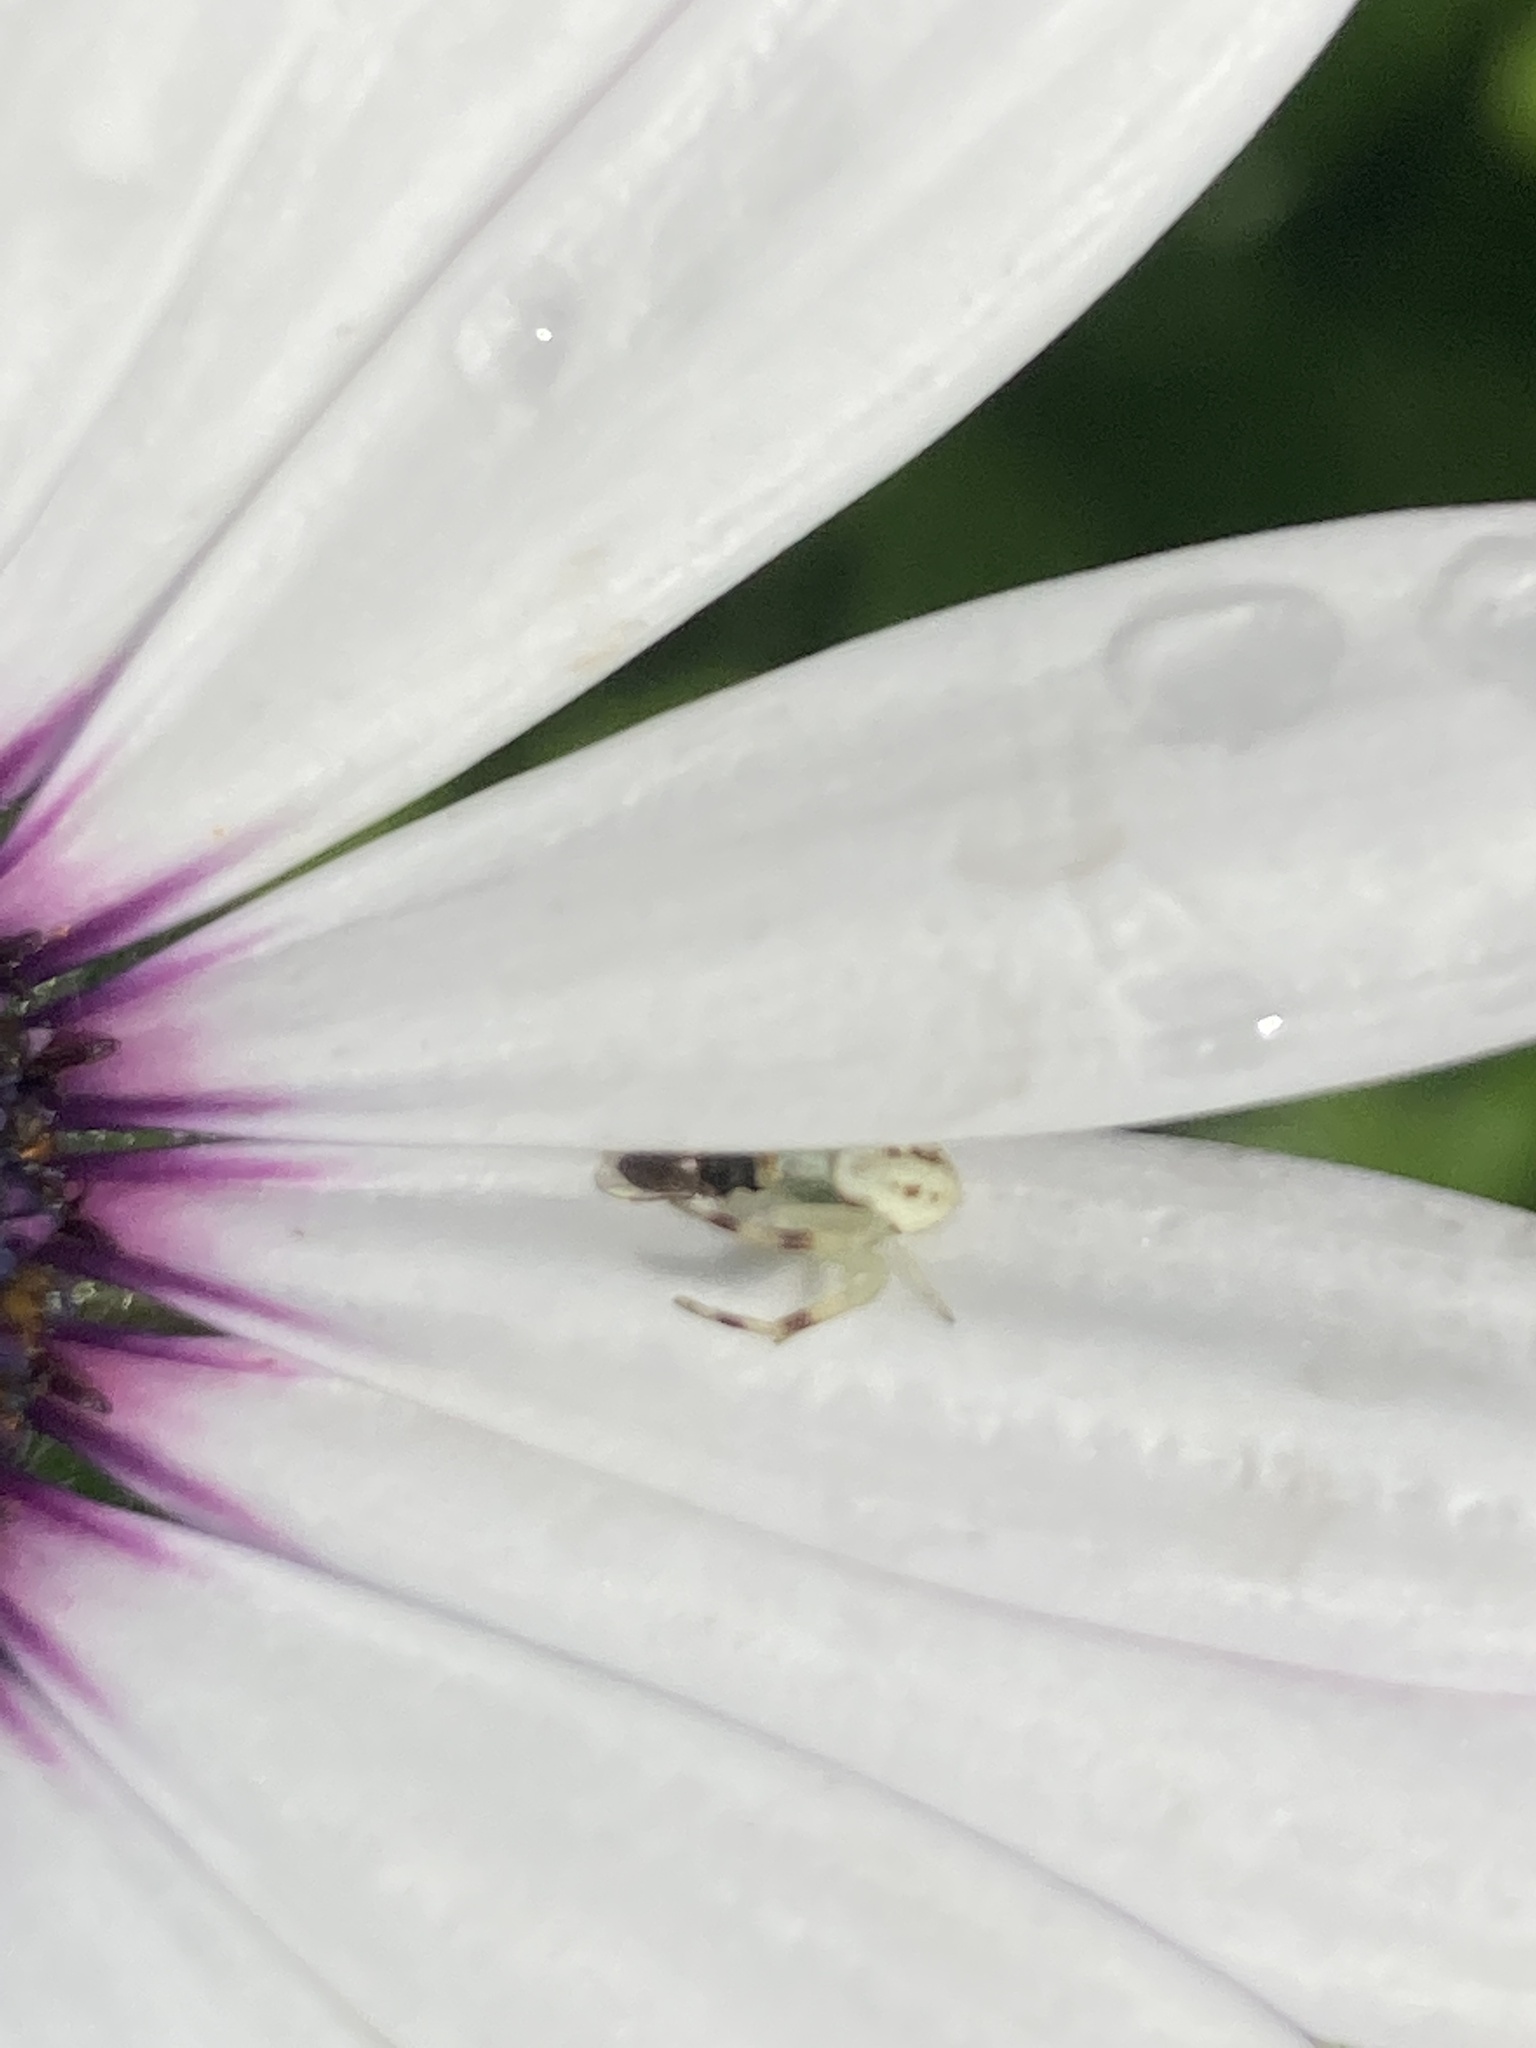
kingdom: Animalia
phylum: Arthropoda
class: Arachnida
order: Araneae
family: Thomisidae
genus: Misumena
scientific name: Misumena vatia
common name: Goldenrod crab spider
